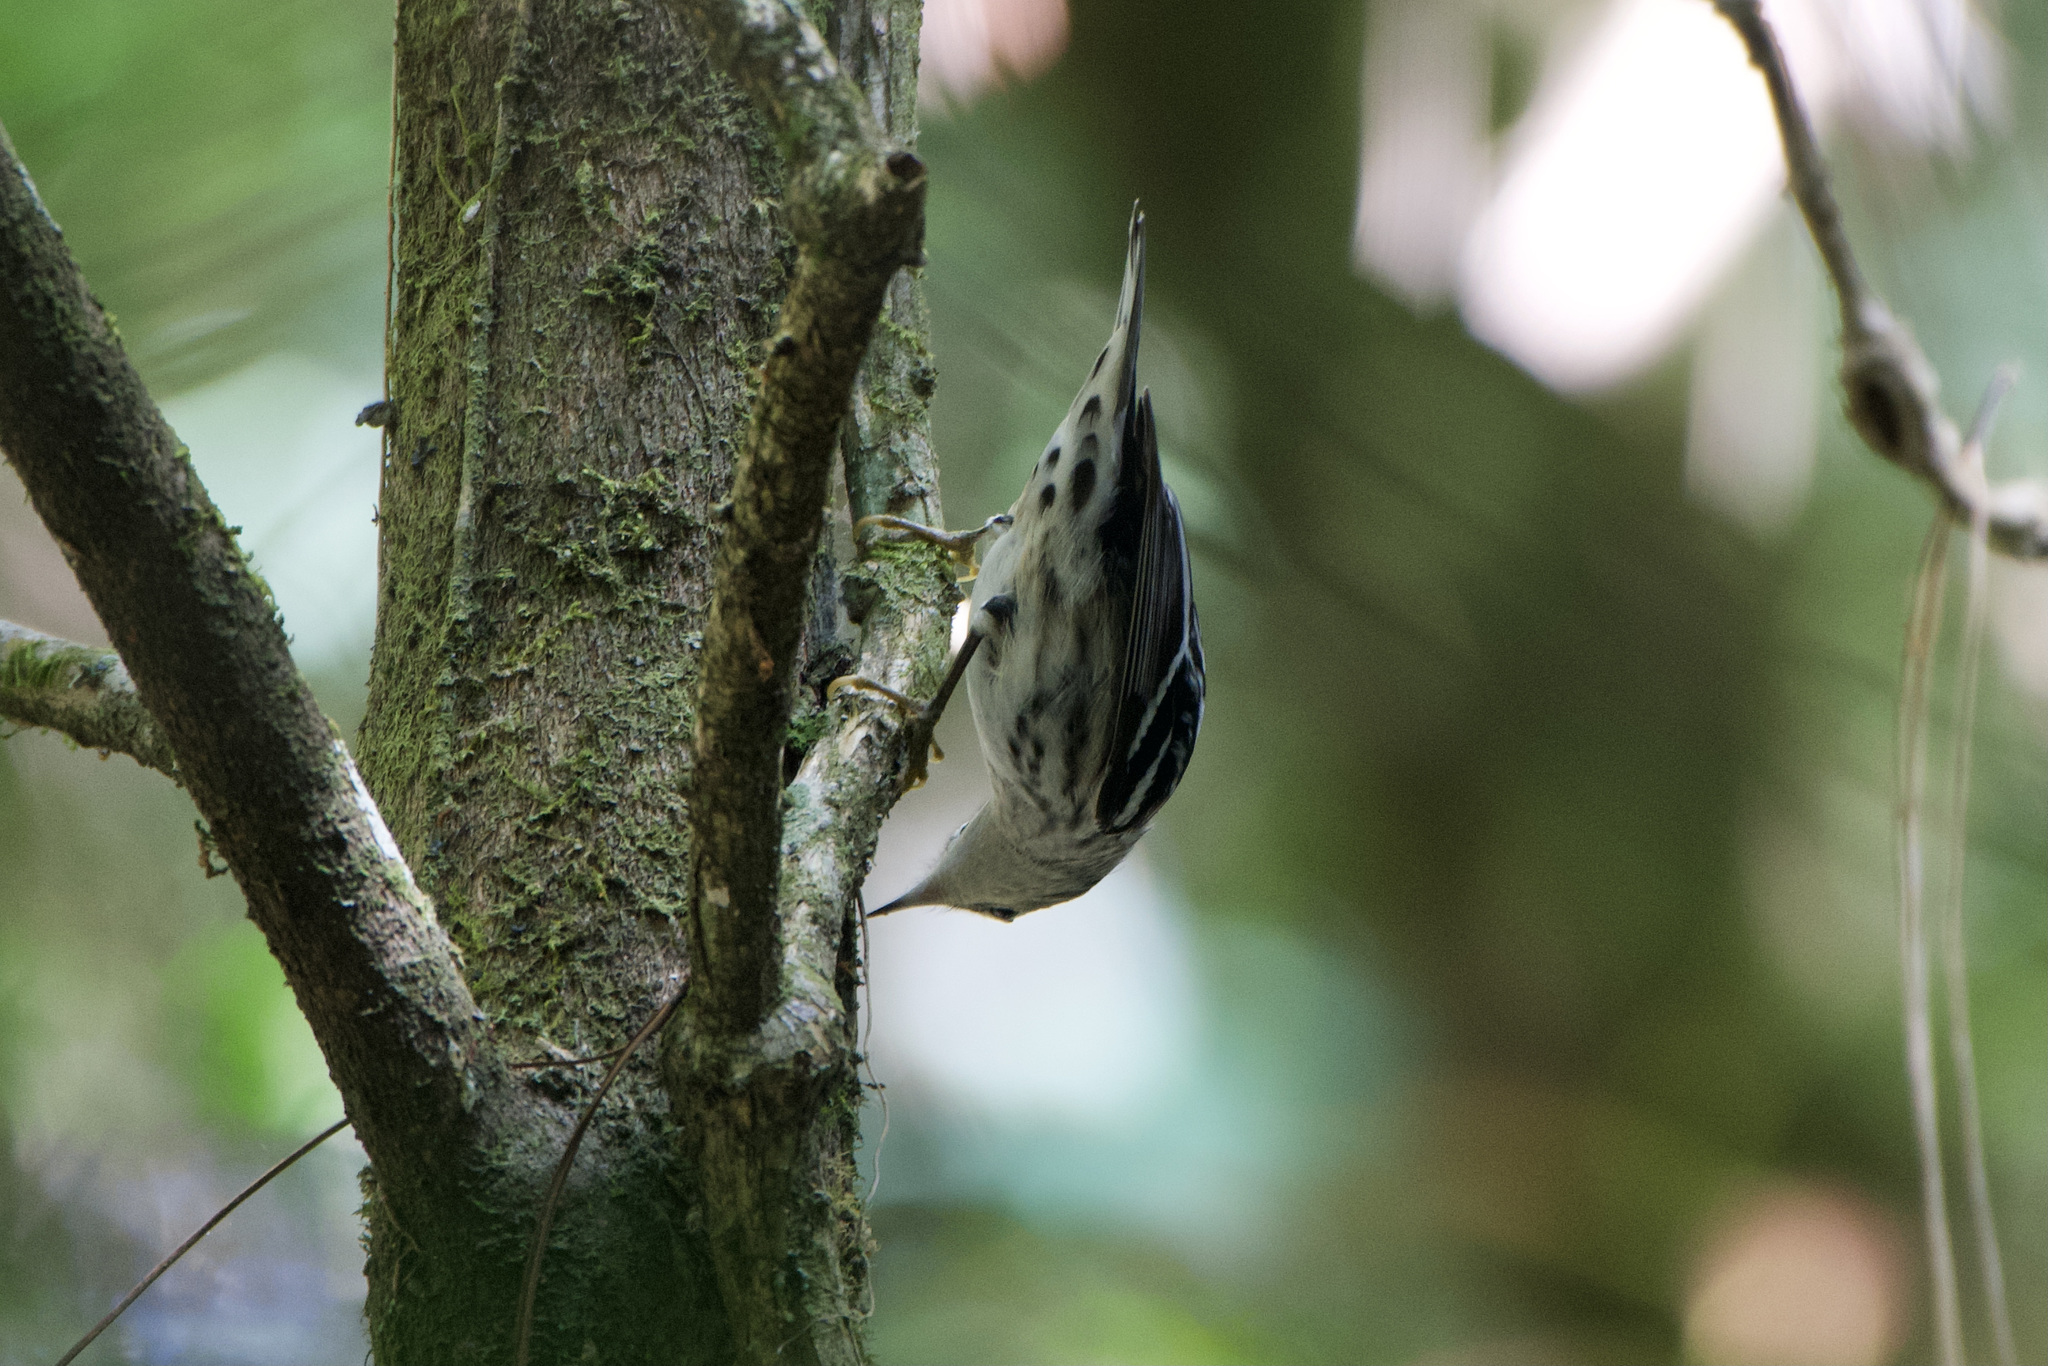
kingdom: Animalia
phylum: Chordata
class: Aves
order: Passeriformes
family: Parulidae
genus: Mniotilta
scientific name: Mniotilta varia
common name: Black-and-white warbler
